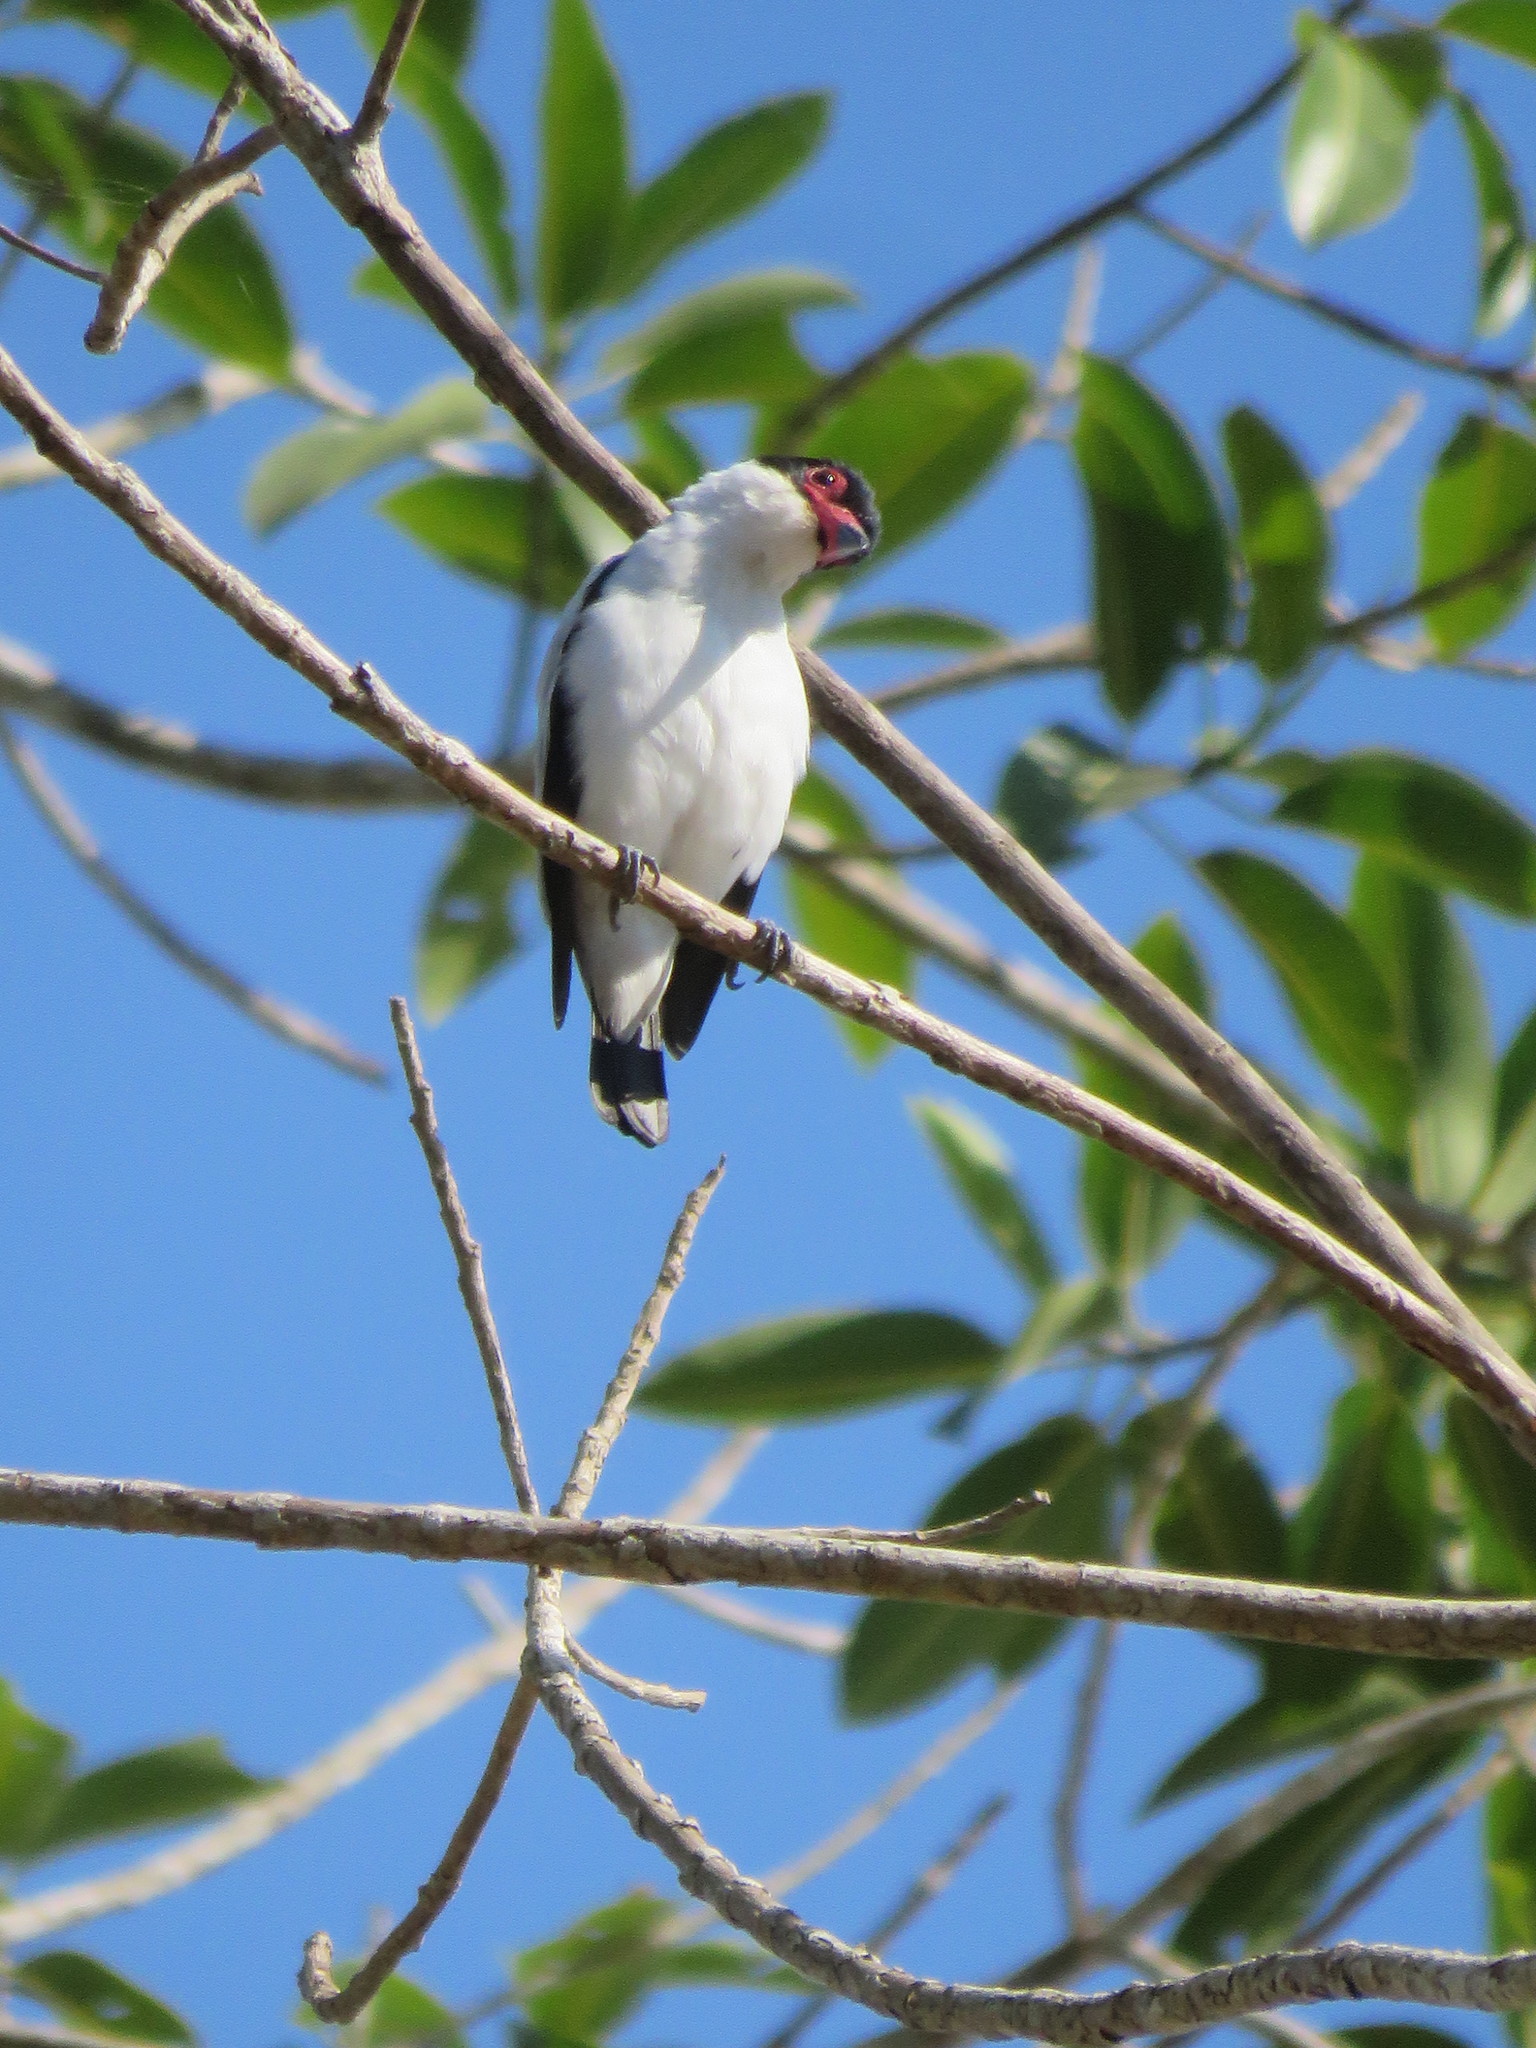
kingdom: Animalia
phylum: Chordata
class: Aves
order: Passeriformes
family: Cotingidae
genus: Tityra
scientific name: Tityra cayana
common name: Black-tailed tityra
